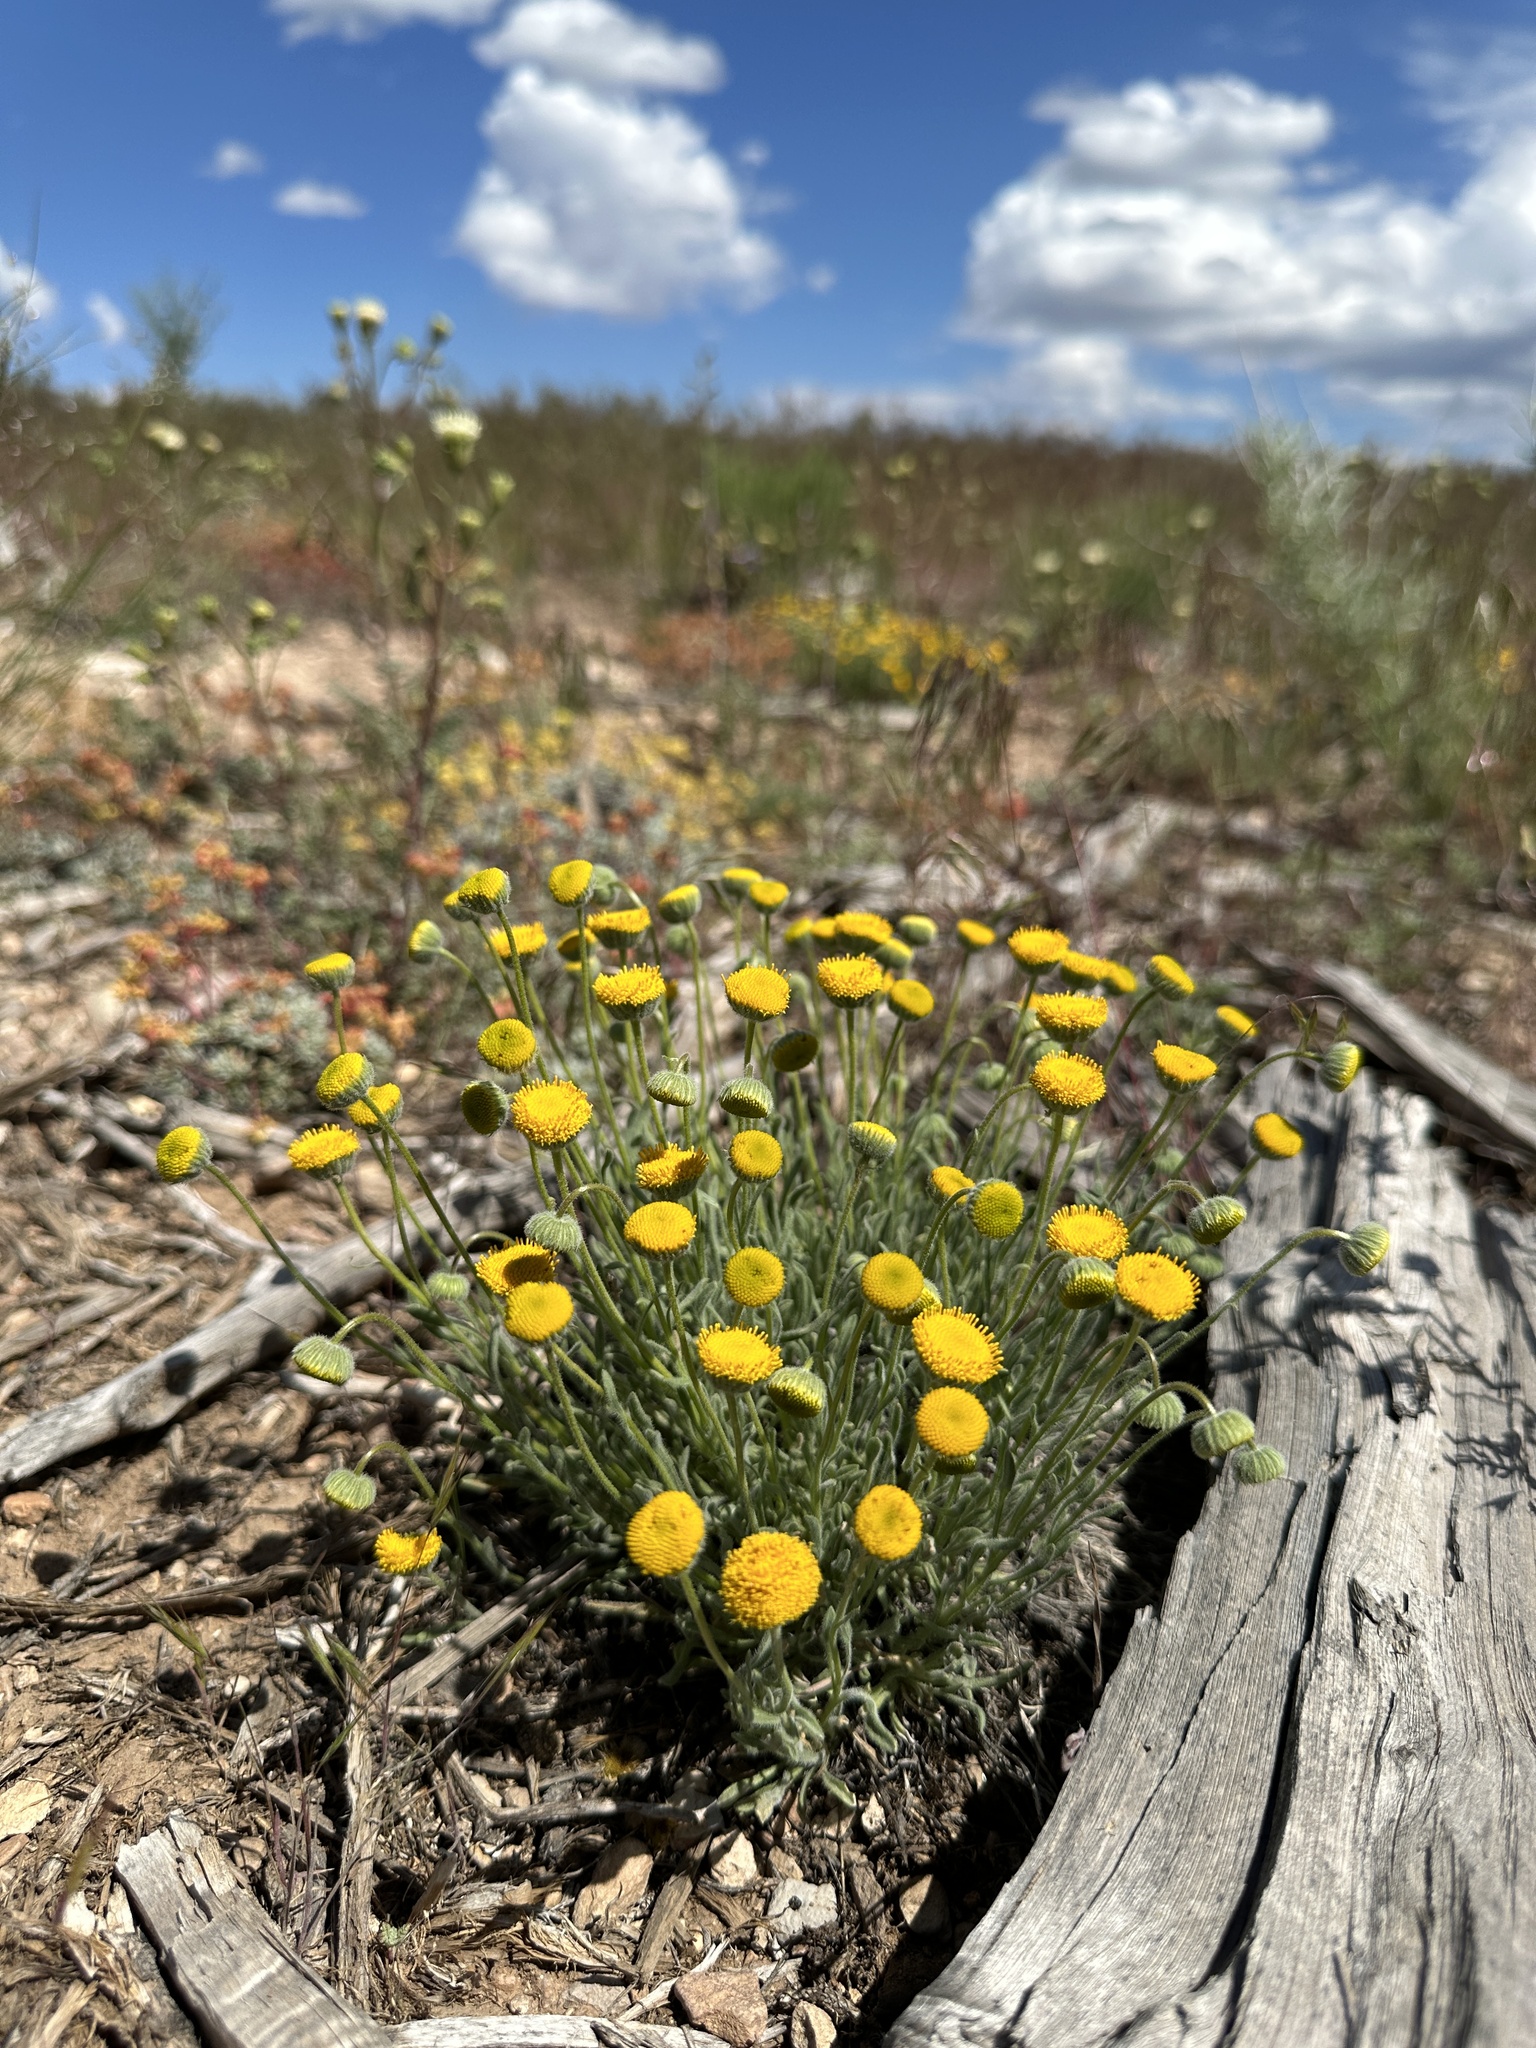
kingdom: Plantae
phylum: Tracheophyta
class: Magnoliopsida
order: Asterales
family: Asteraceae
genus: Erigeron
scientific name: Erigeron aphanactis
